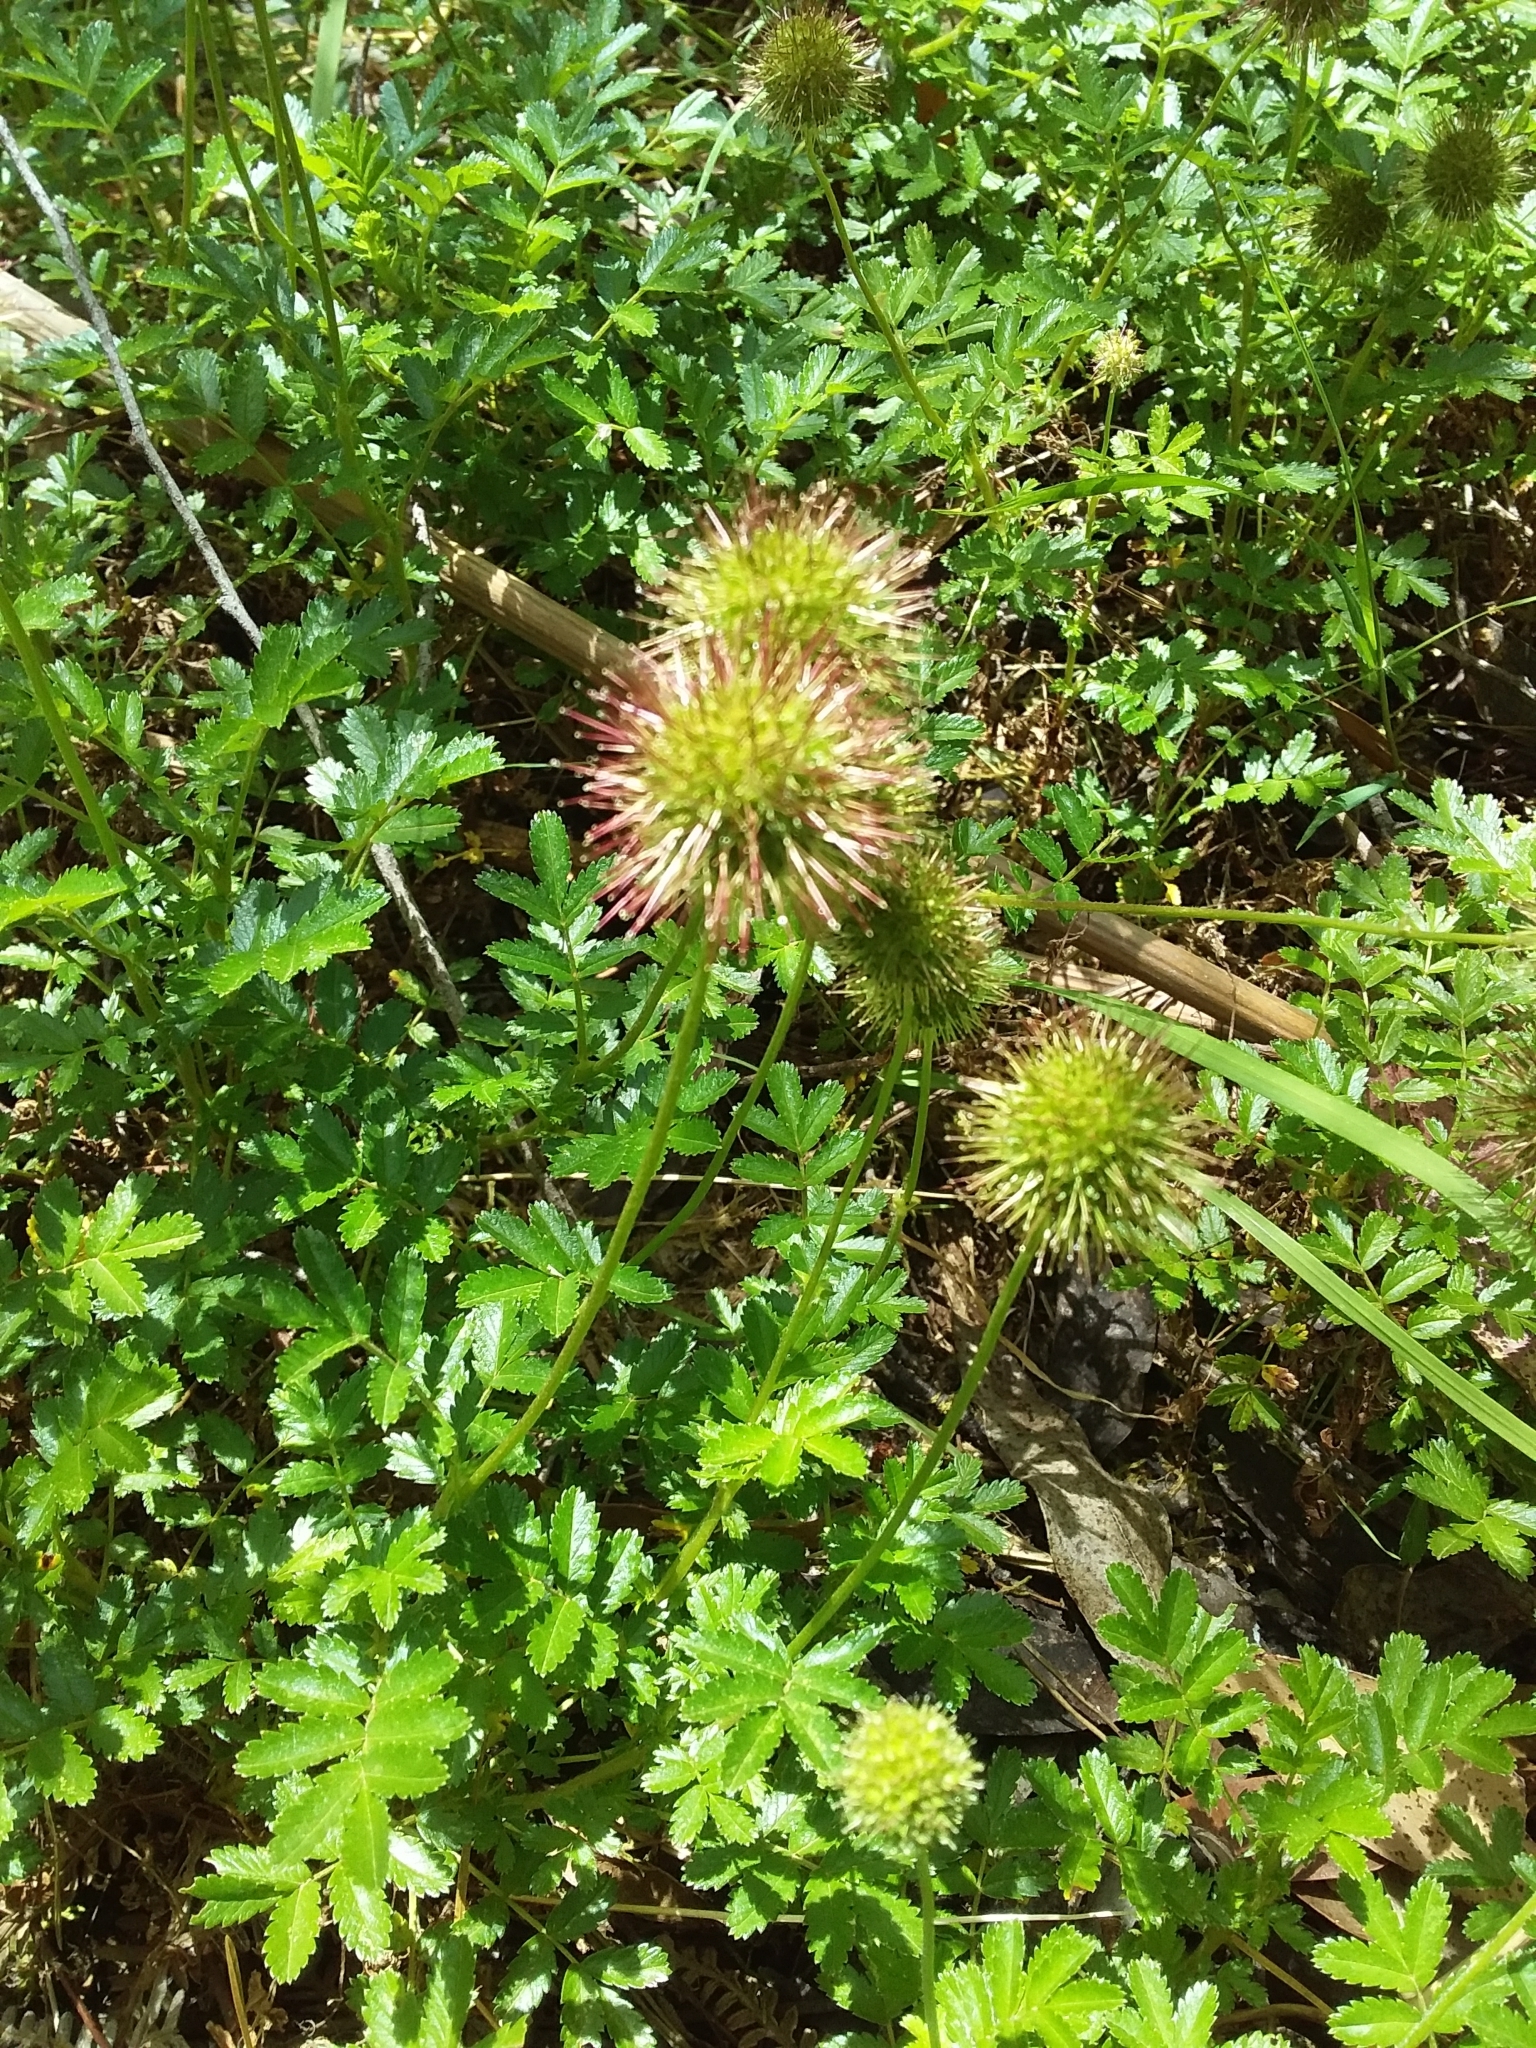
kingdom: Plantae
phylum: Tracheophyta
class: Magnoliopsida
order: Rosales
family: Rosaceae
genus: Acaena
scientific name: Acaena novae-zelandiae
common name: Pirri-pirri-bur
